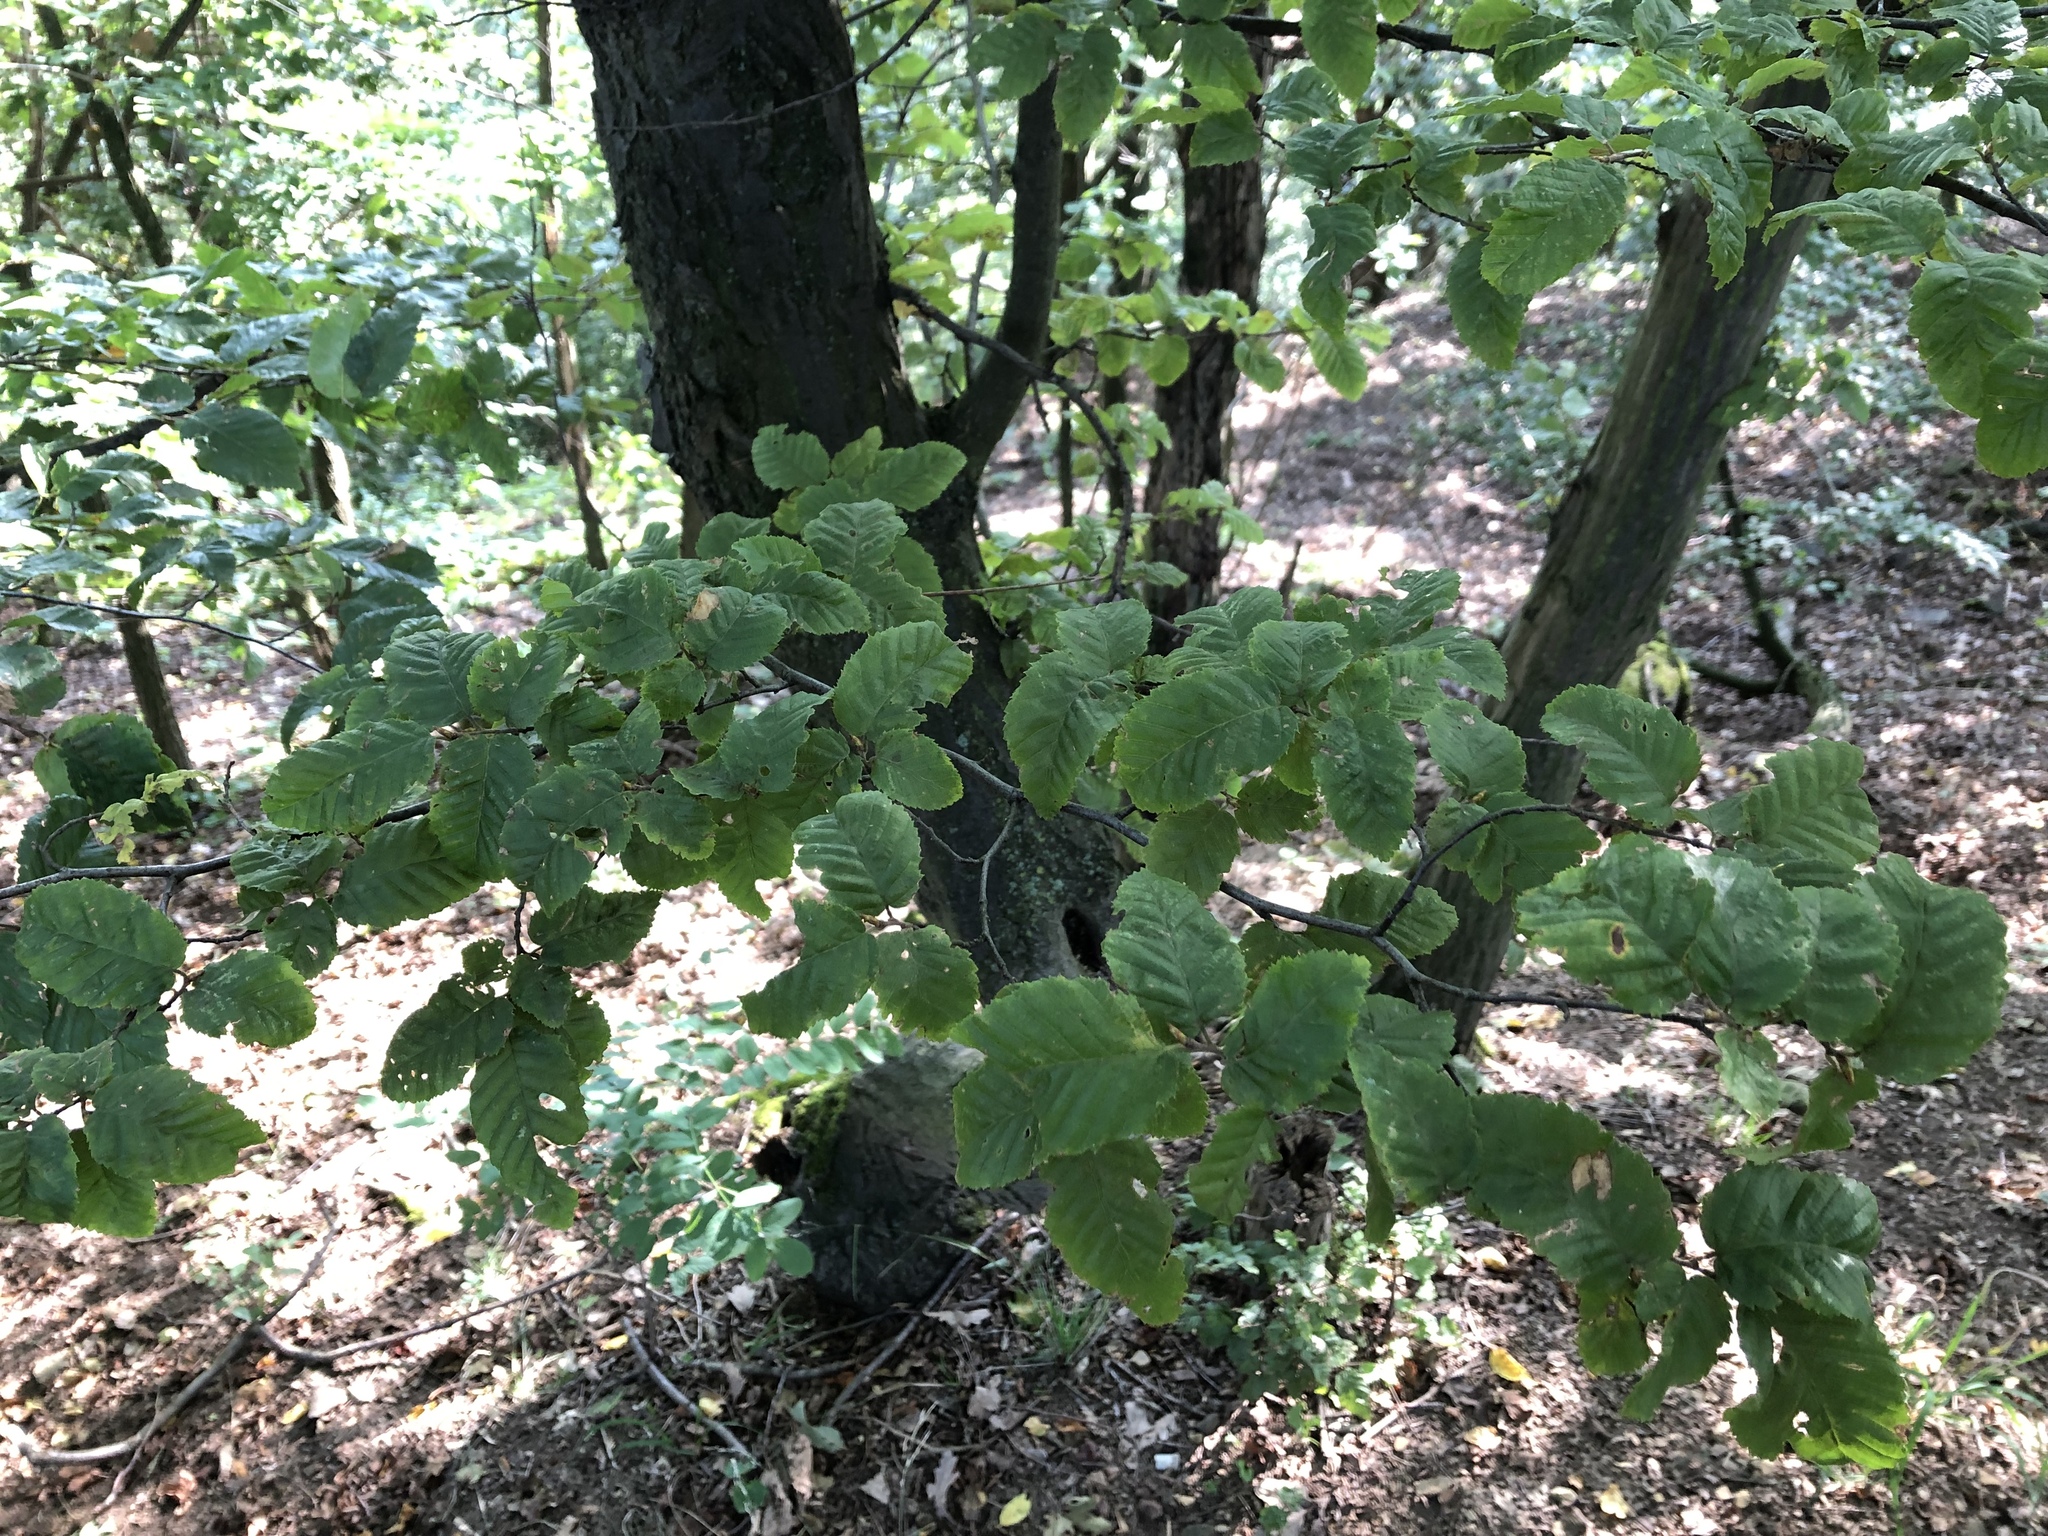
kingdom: Plantae
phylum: Tracheophyta
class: Magnoliopsida
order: Fagales
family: Betulaceae
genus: Carpinus
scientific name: Carpinus betulus
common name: Hornbeam
